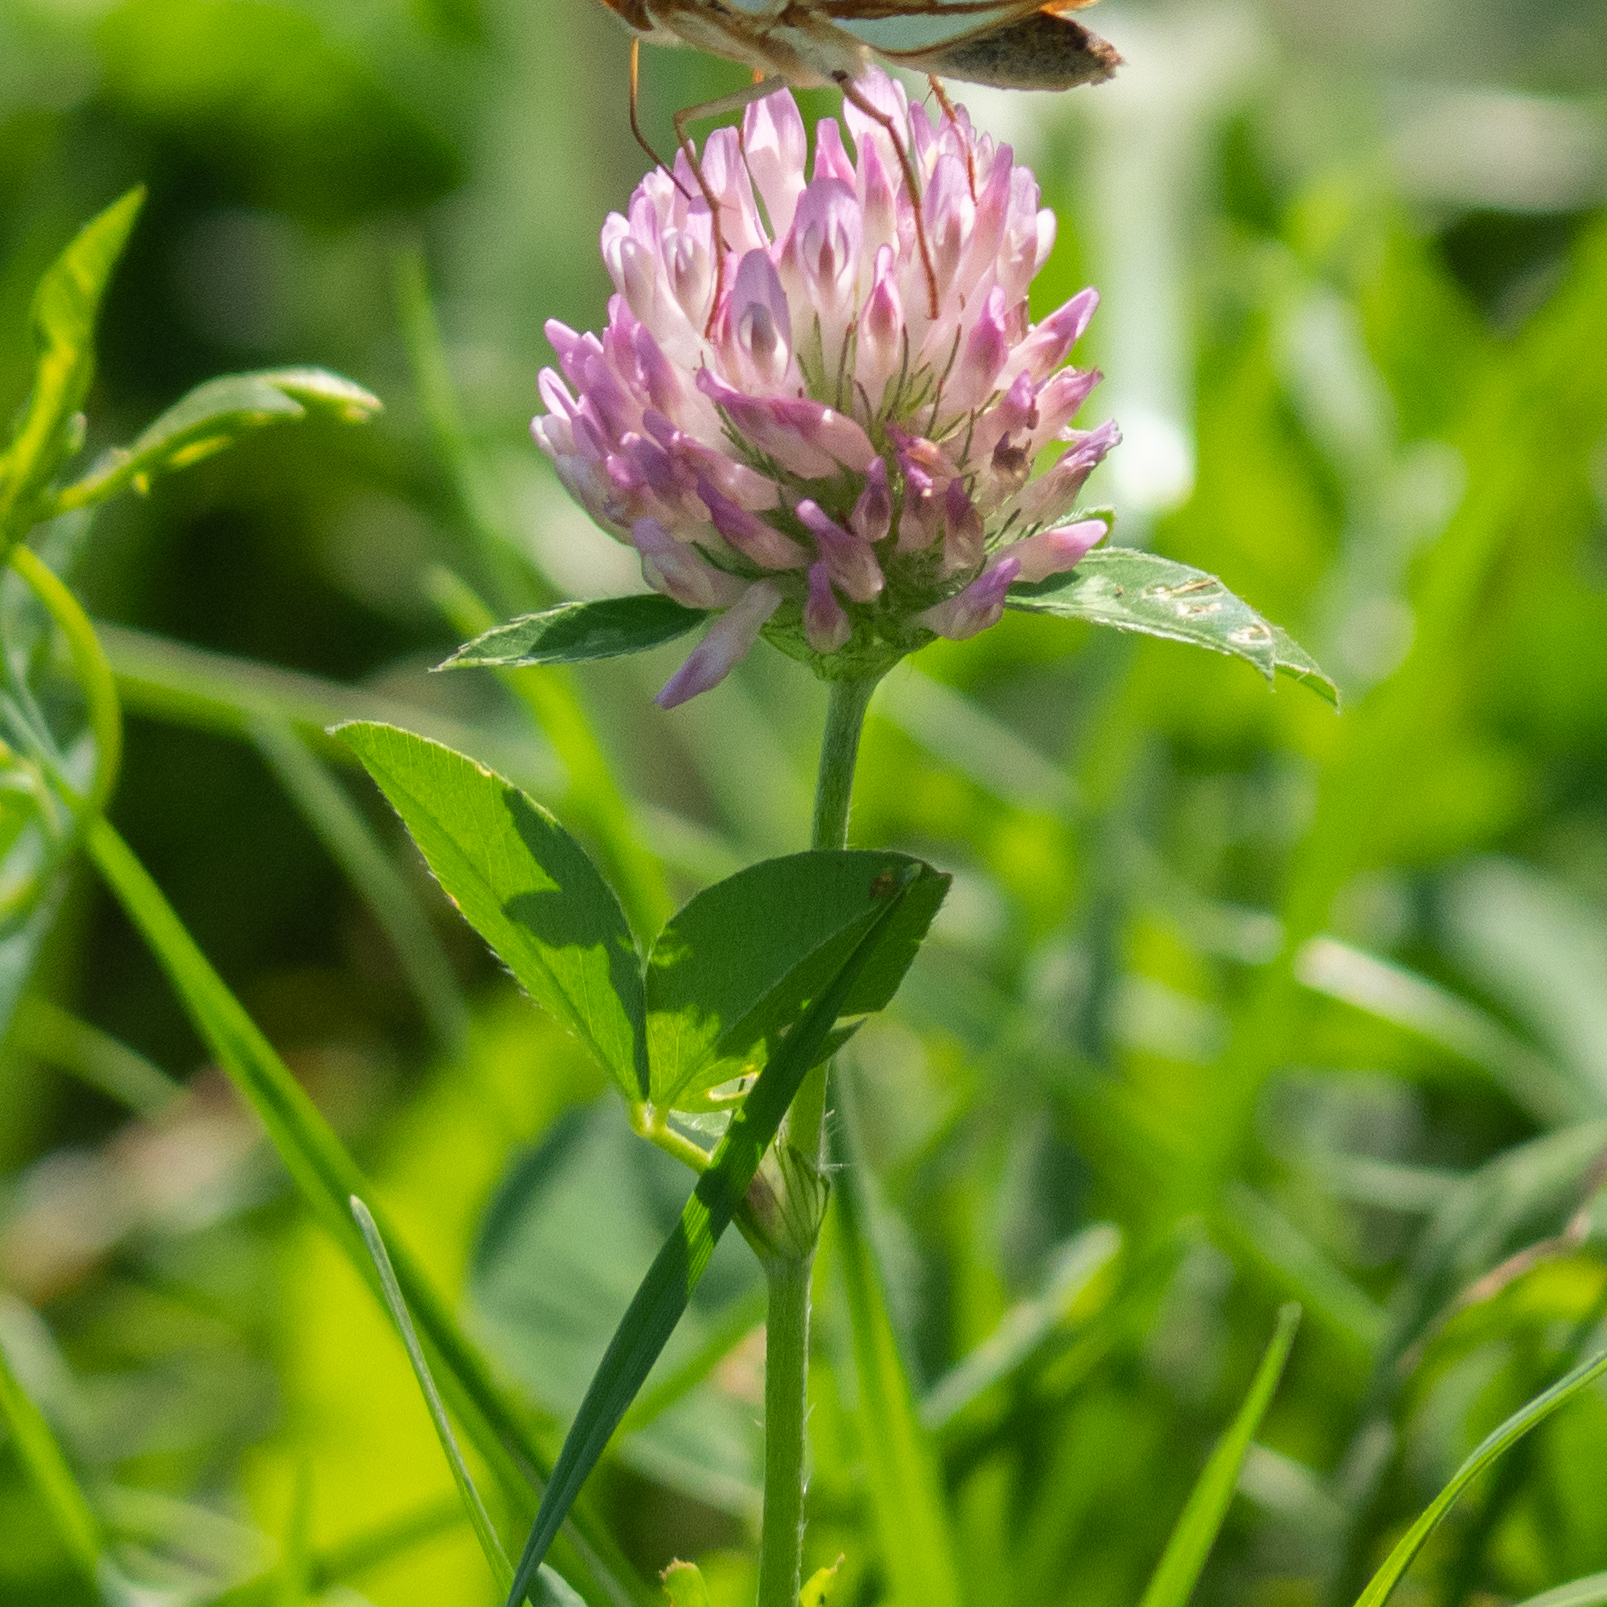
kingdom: Plantae
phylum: Tracheophyta
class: Magnoliopsida
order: Fabales
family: Fabaceae
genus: Trifolium
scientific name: Trifolium pratense
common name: Red clover
